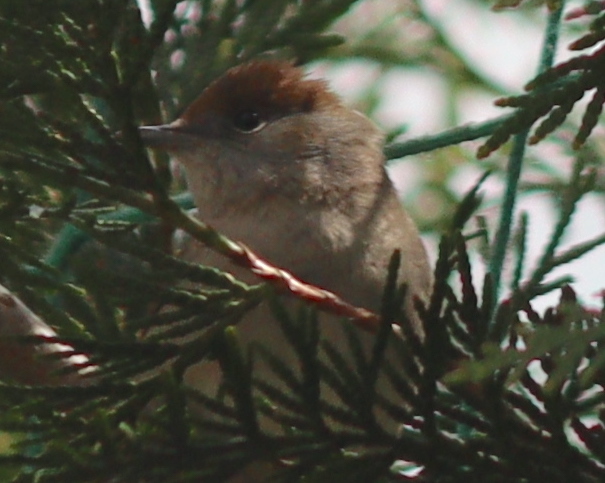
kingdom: Animalia
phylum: Chordata
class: Aves
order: Passeriformes
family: Sylviidae
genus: Sylvia
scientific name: Sylvia atricapilla
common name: Eurasian blackcap
